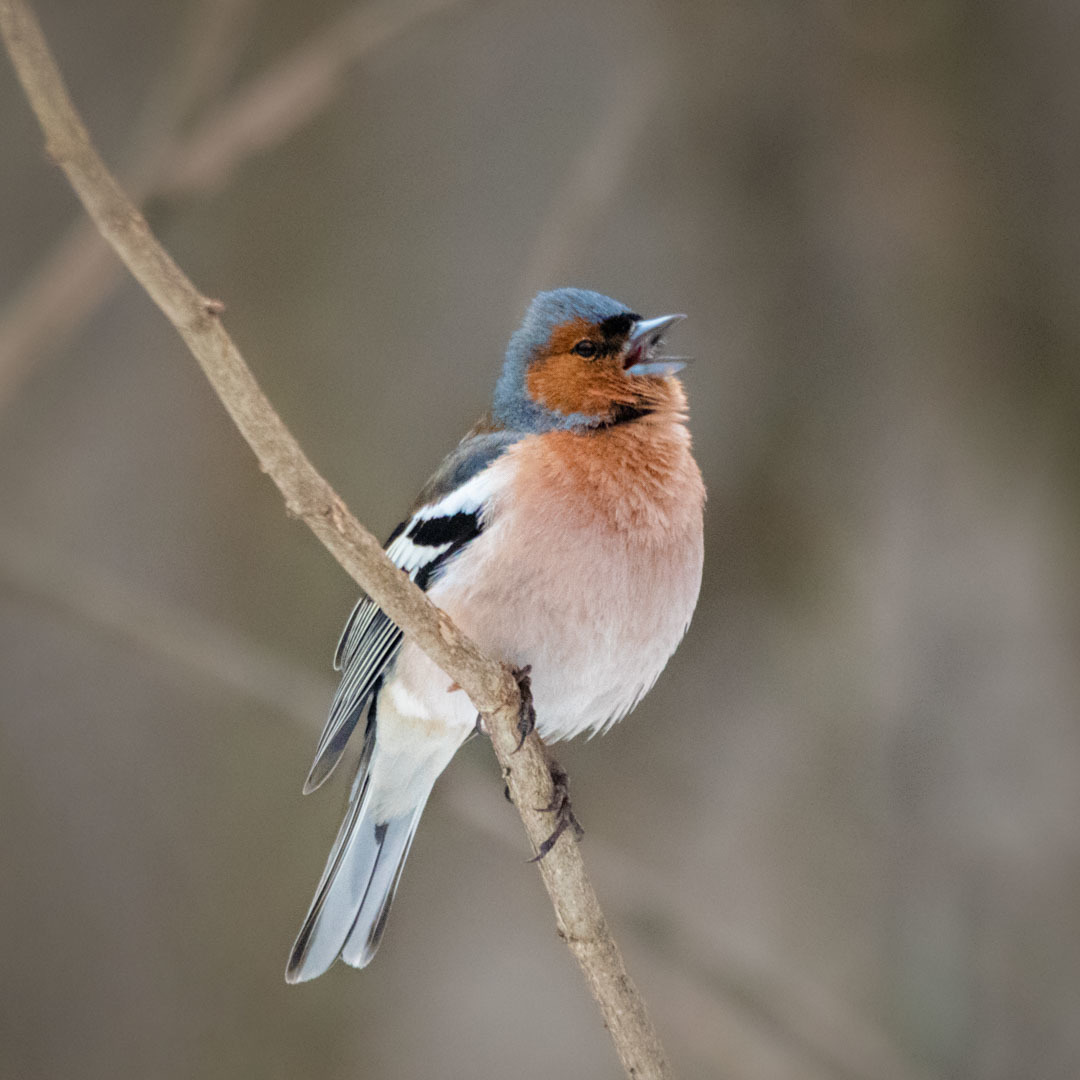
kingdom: Animalia
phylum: Chordata
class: Aves
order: Passeriformes
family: Fringillidae
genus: Fringilla
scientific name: Fringilla coelebs
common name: Common chaffinch
